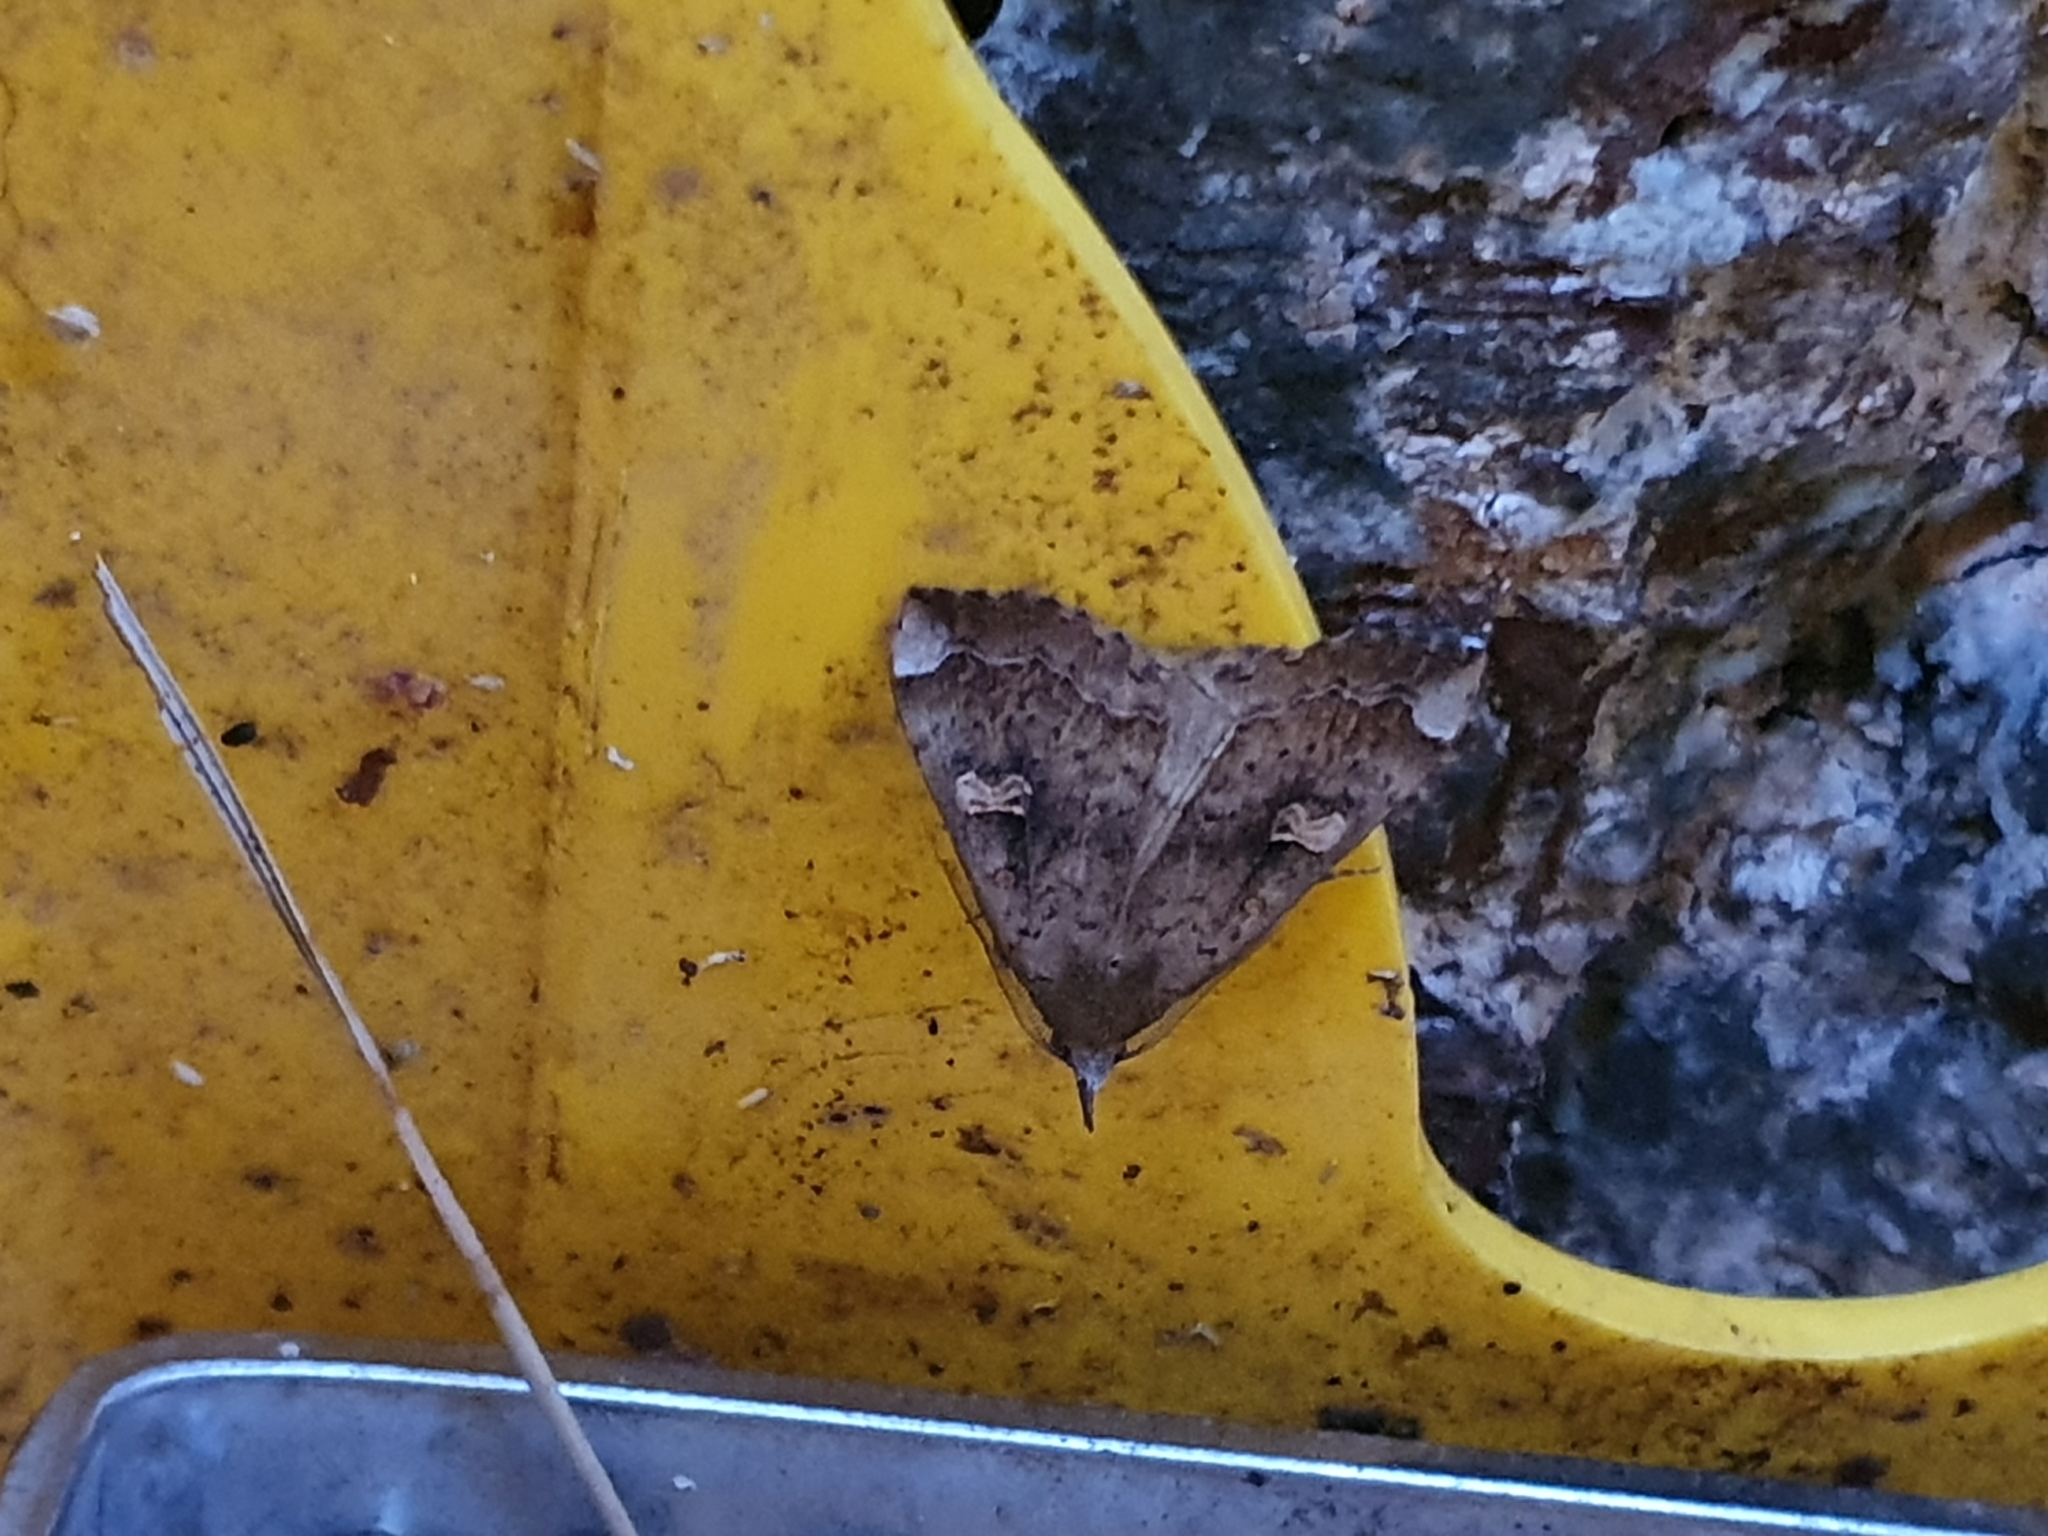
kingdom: Animalia
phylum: Arthropoda
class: Insecta
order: Lepidoptera
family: Erebidae
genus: Rhapsa
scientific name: Rhapsa scotosialis
